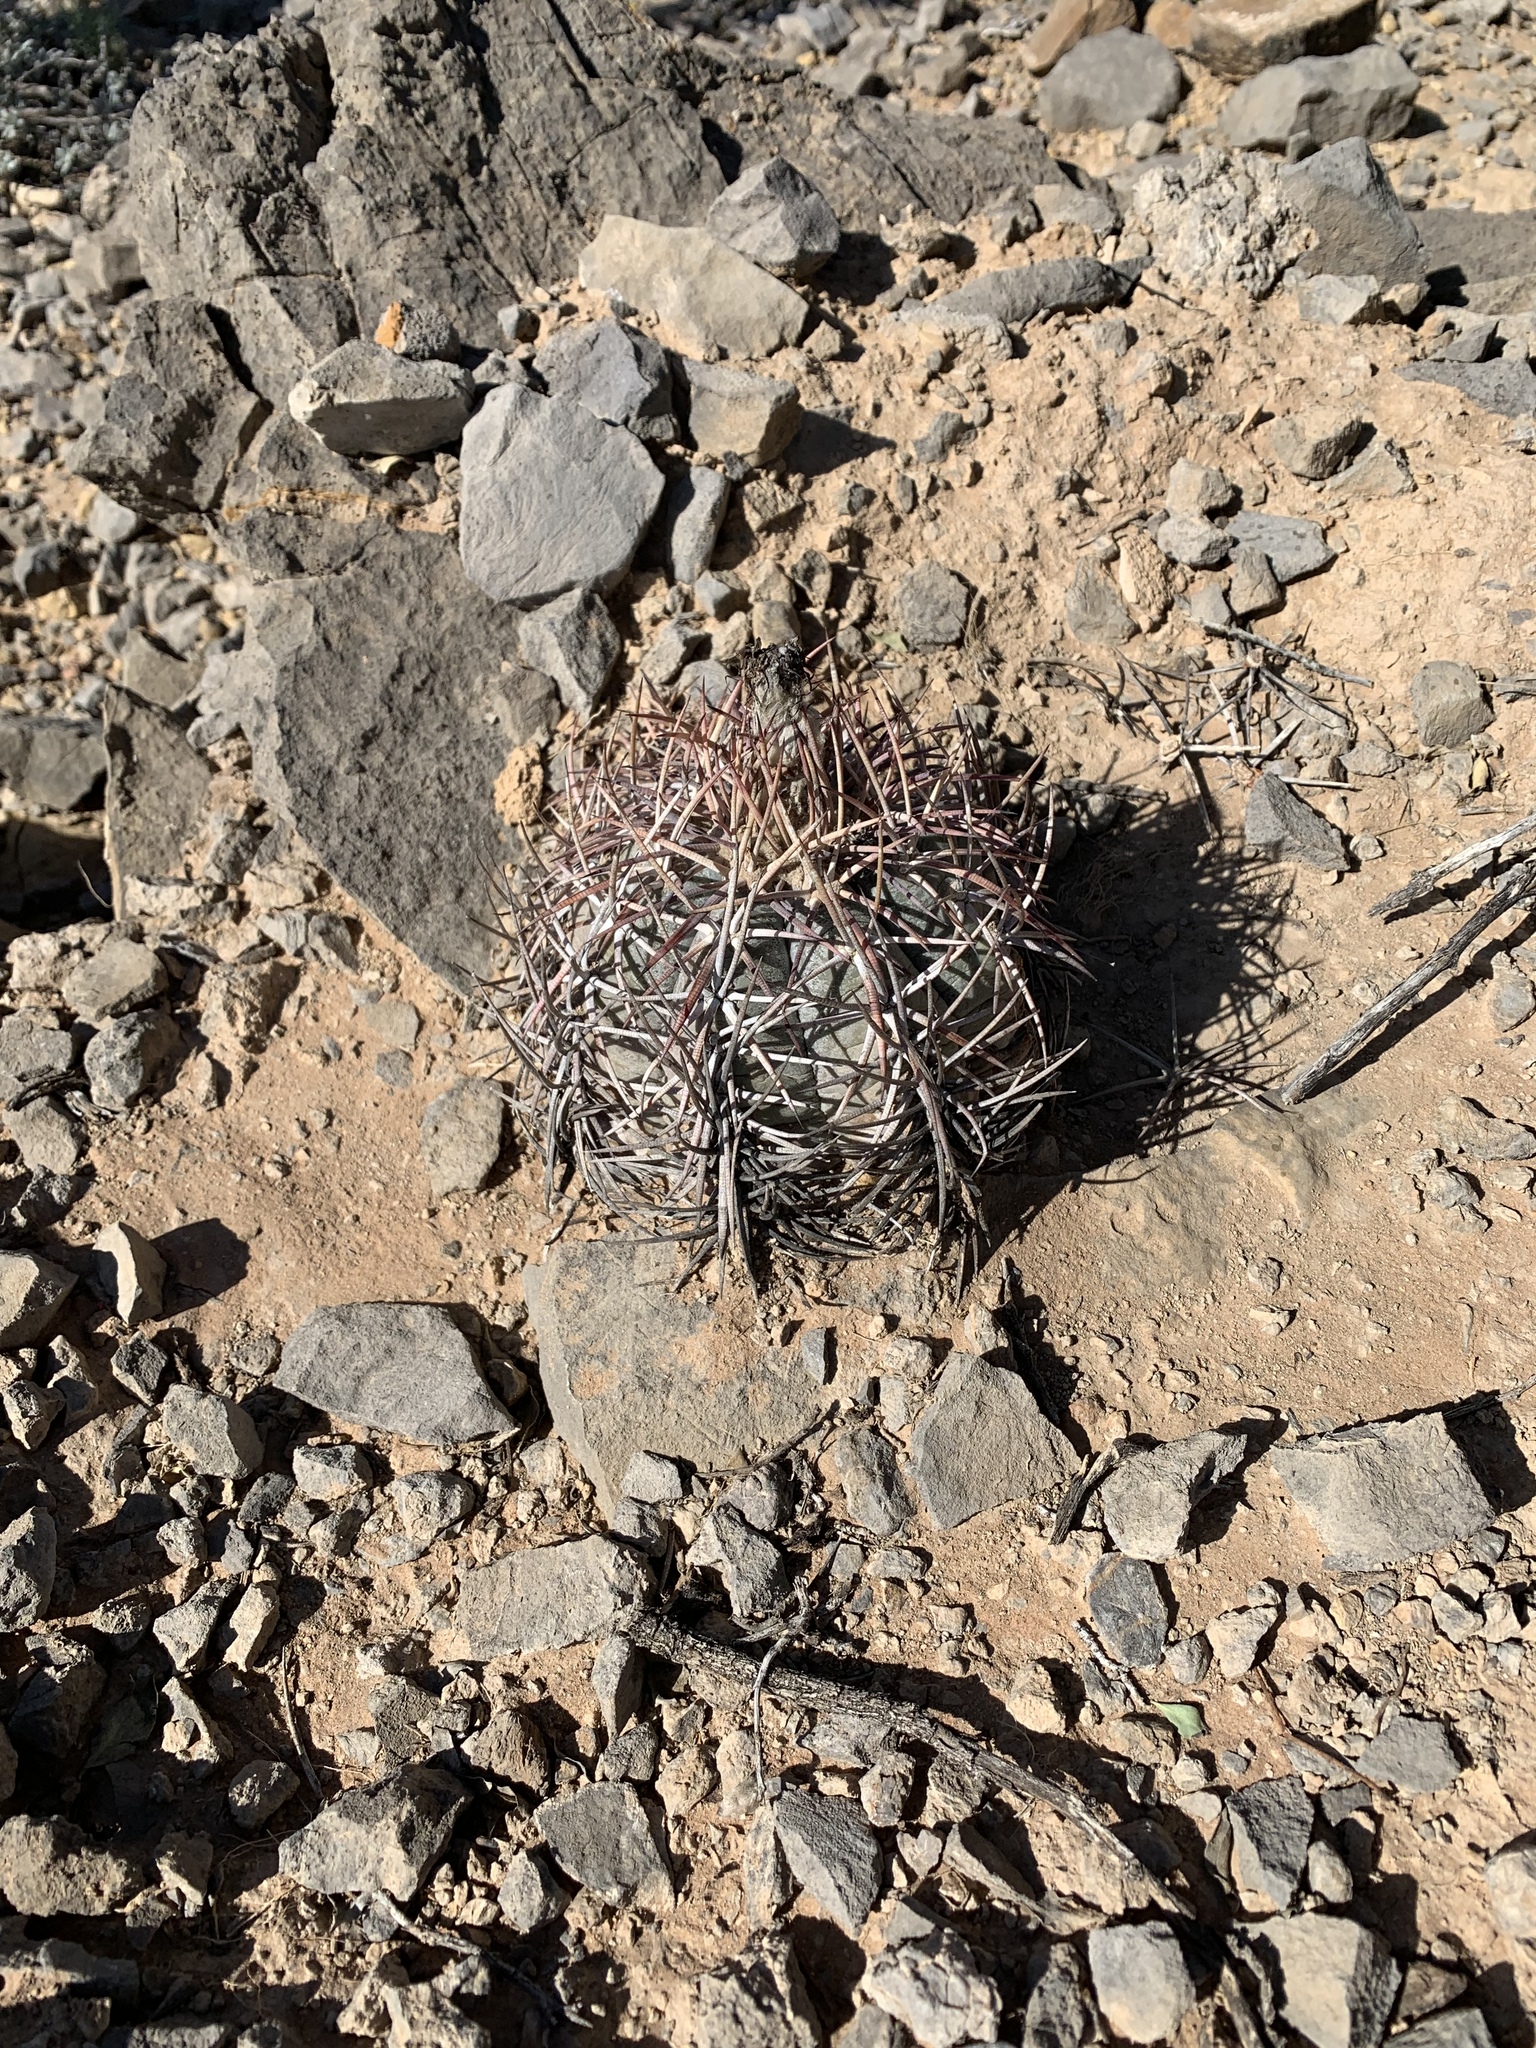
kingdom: Plantae
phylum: Tracheophyta
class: Magnoliopsida
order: Caryophyllales
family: Cactaceae
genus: Echinocactus
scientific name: Echinocactus horizonthalonius
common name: Devilshead
